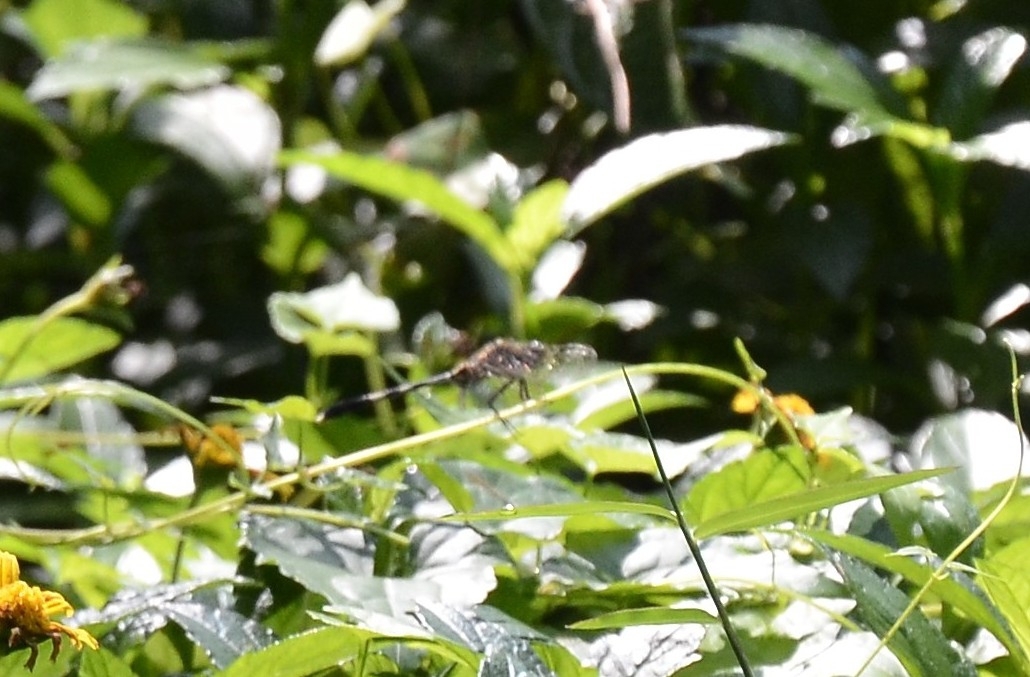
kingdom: Animalia
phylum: Arthropoda
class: Insecta
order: Odonata
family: Libellulidae
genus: Orthetrum
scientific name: Orthetrum sabina
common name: Slender skimmer
